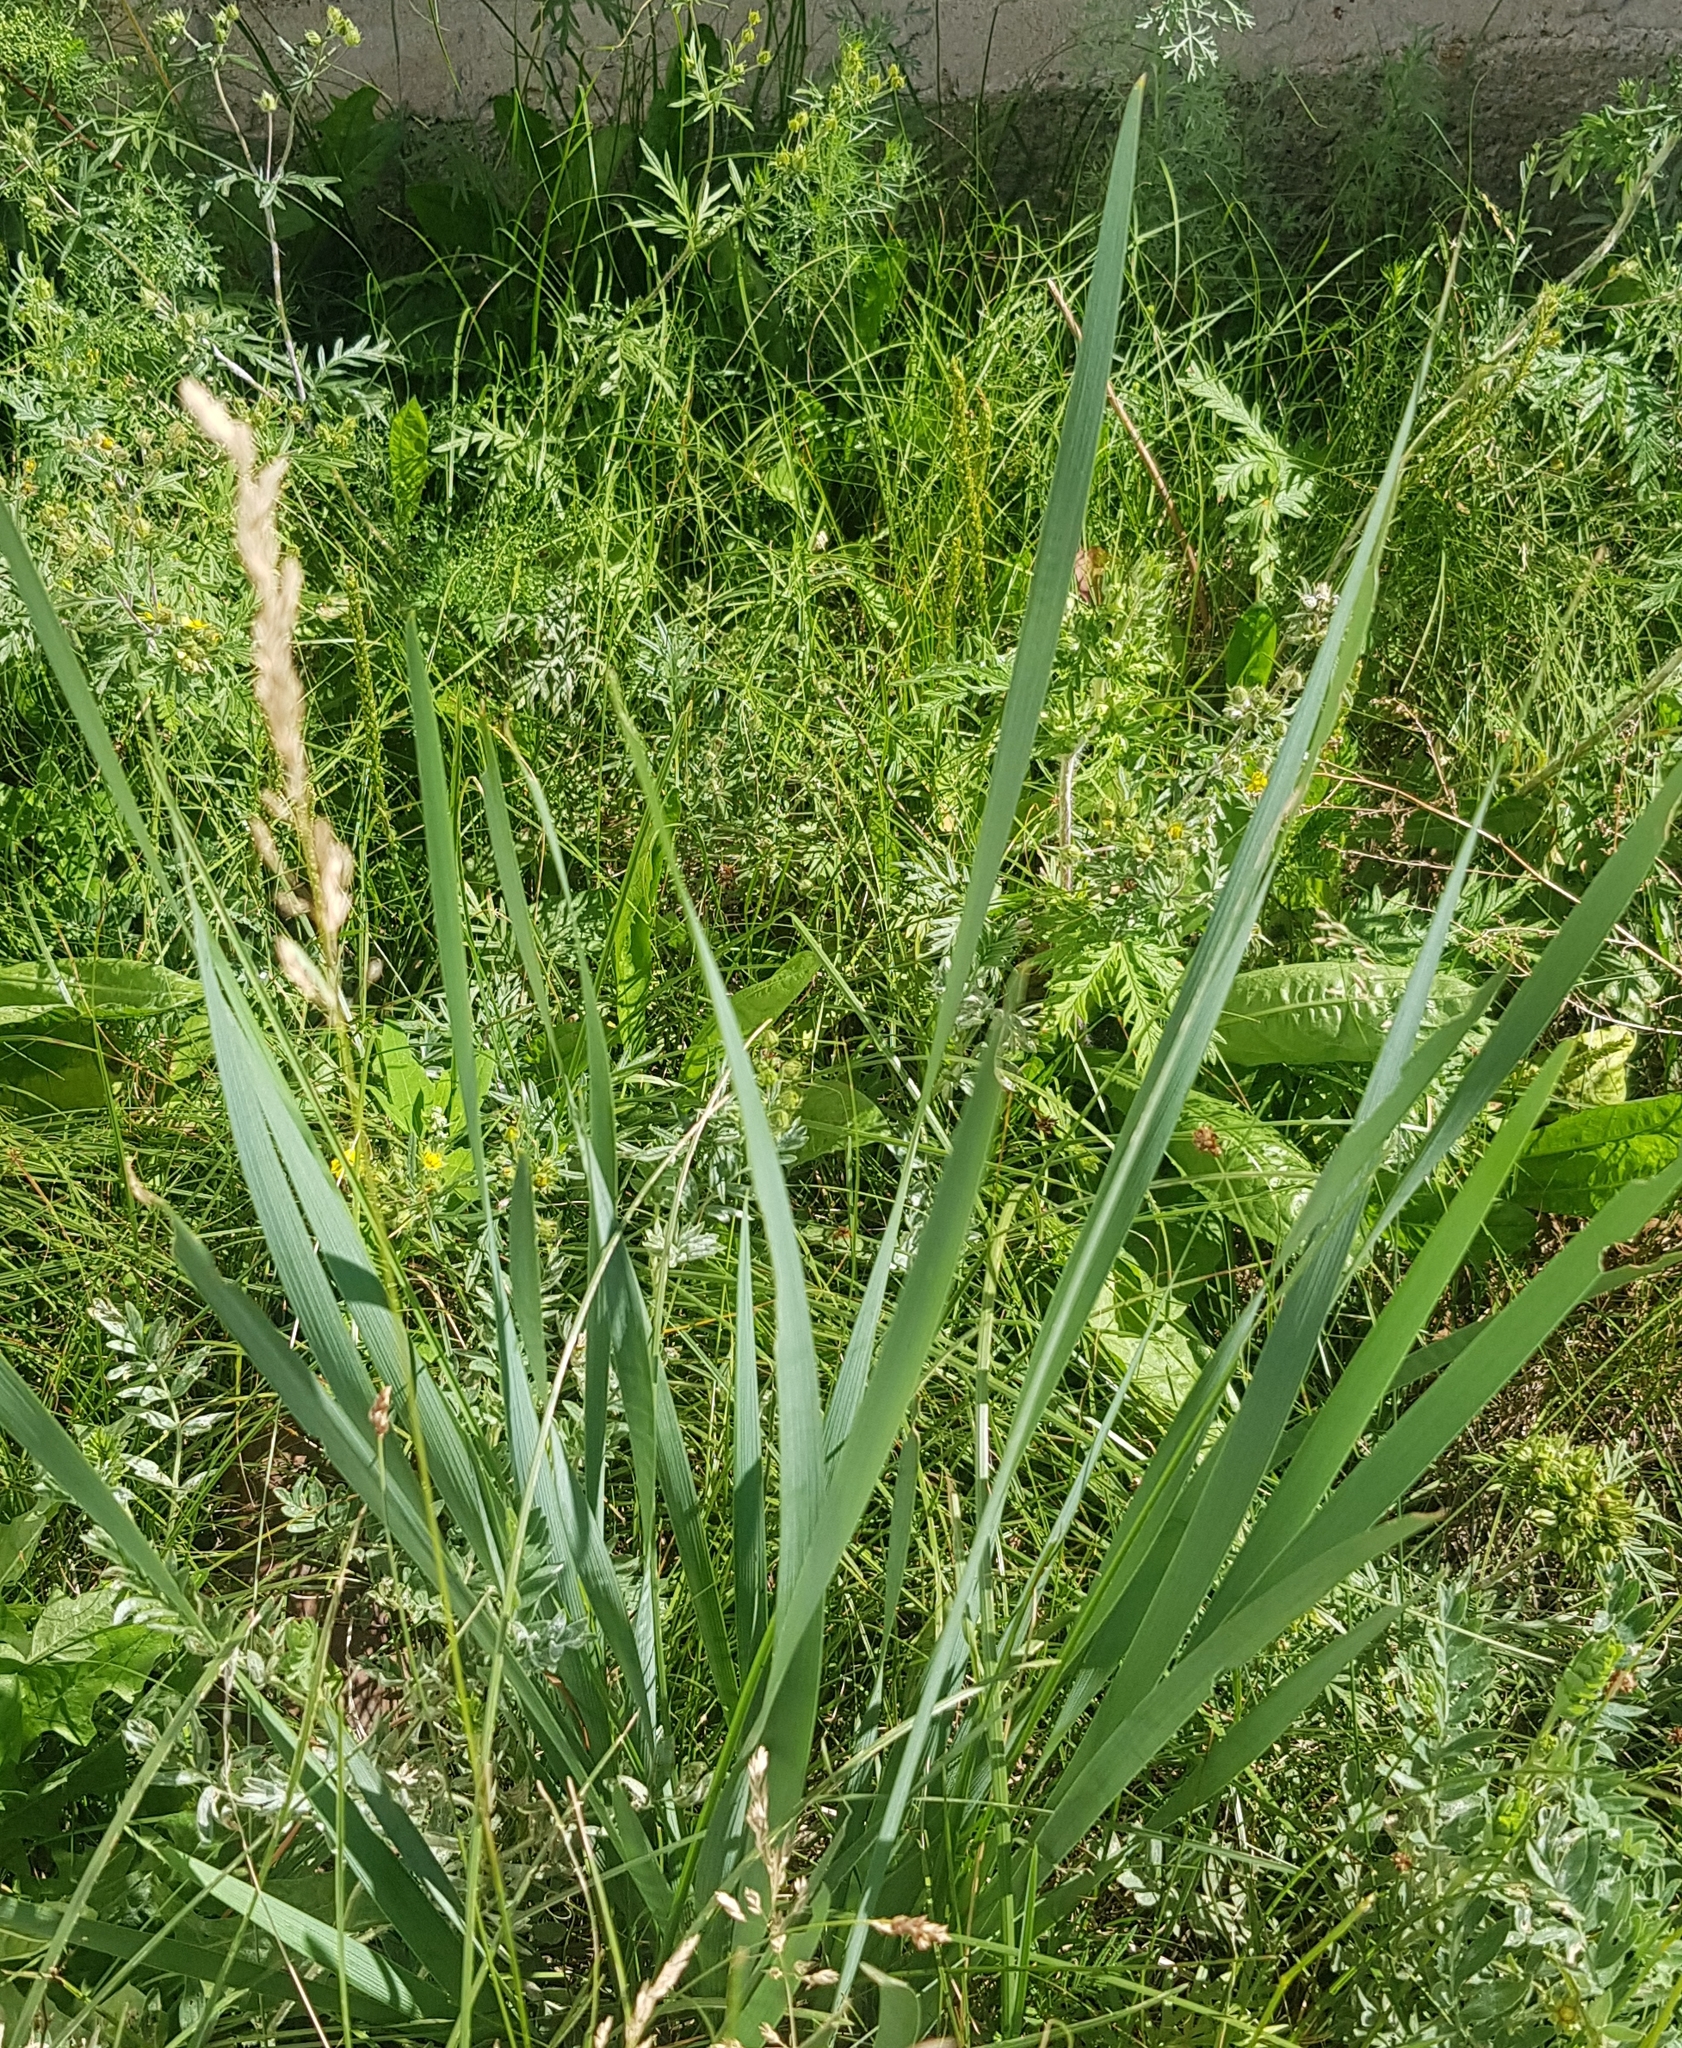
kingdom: Plantae
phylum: Tracheophyta
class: Liliopsida
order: Asparagales
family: Iridaceae
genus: Iris
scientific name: Iris lactea
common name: White-flower chinese iris
